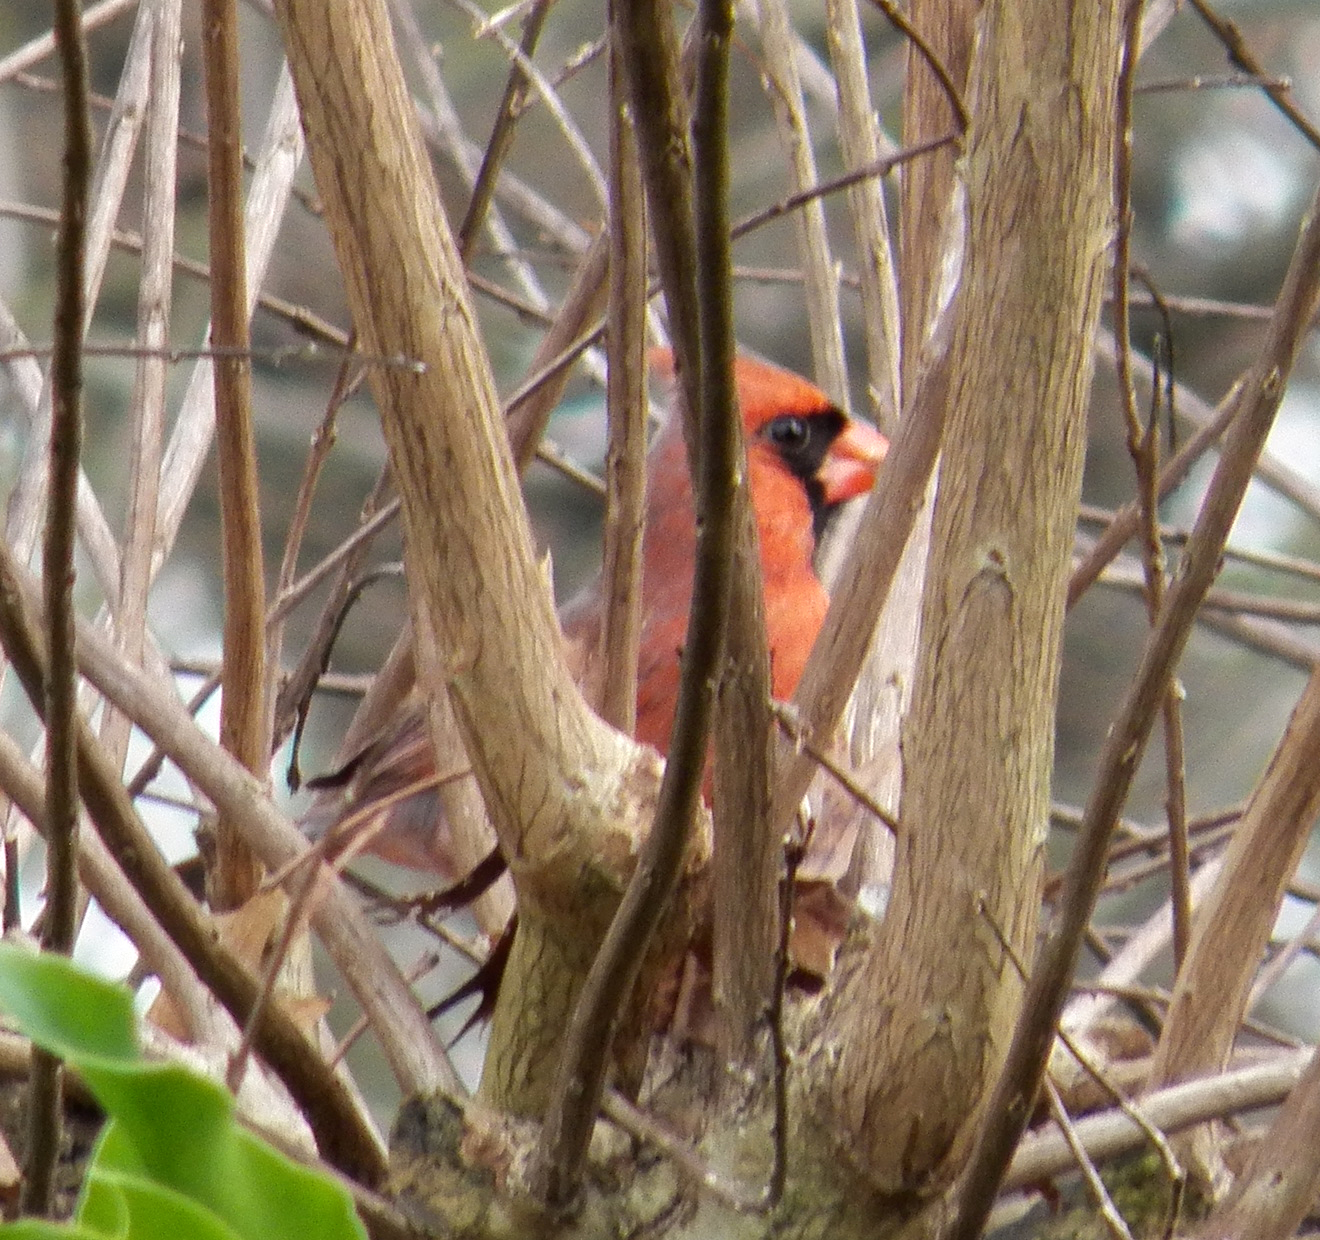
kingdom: Animalia
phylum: Chordata
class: Aves
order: Passeriformes
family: Cardinalidae
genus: Cardinalis
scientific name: Cardinalis cardinalis
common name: Northern cardinal
